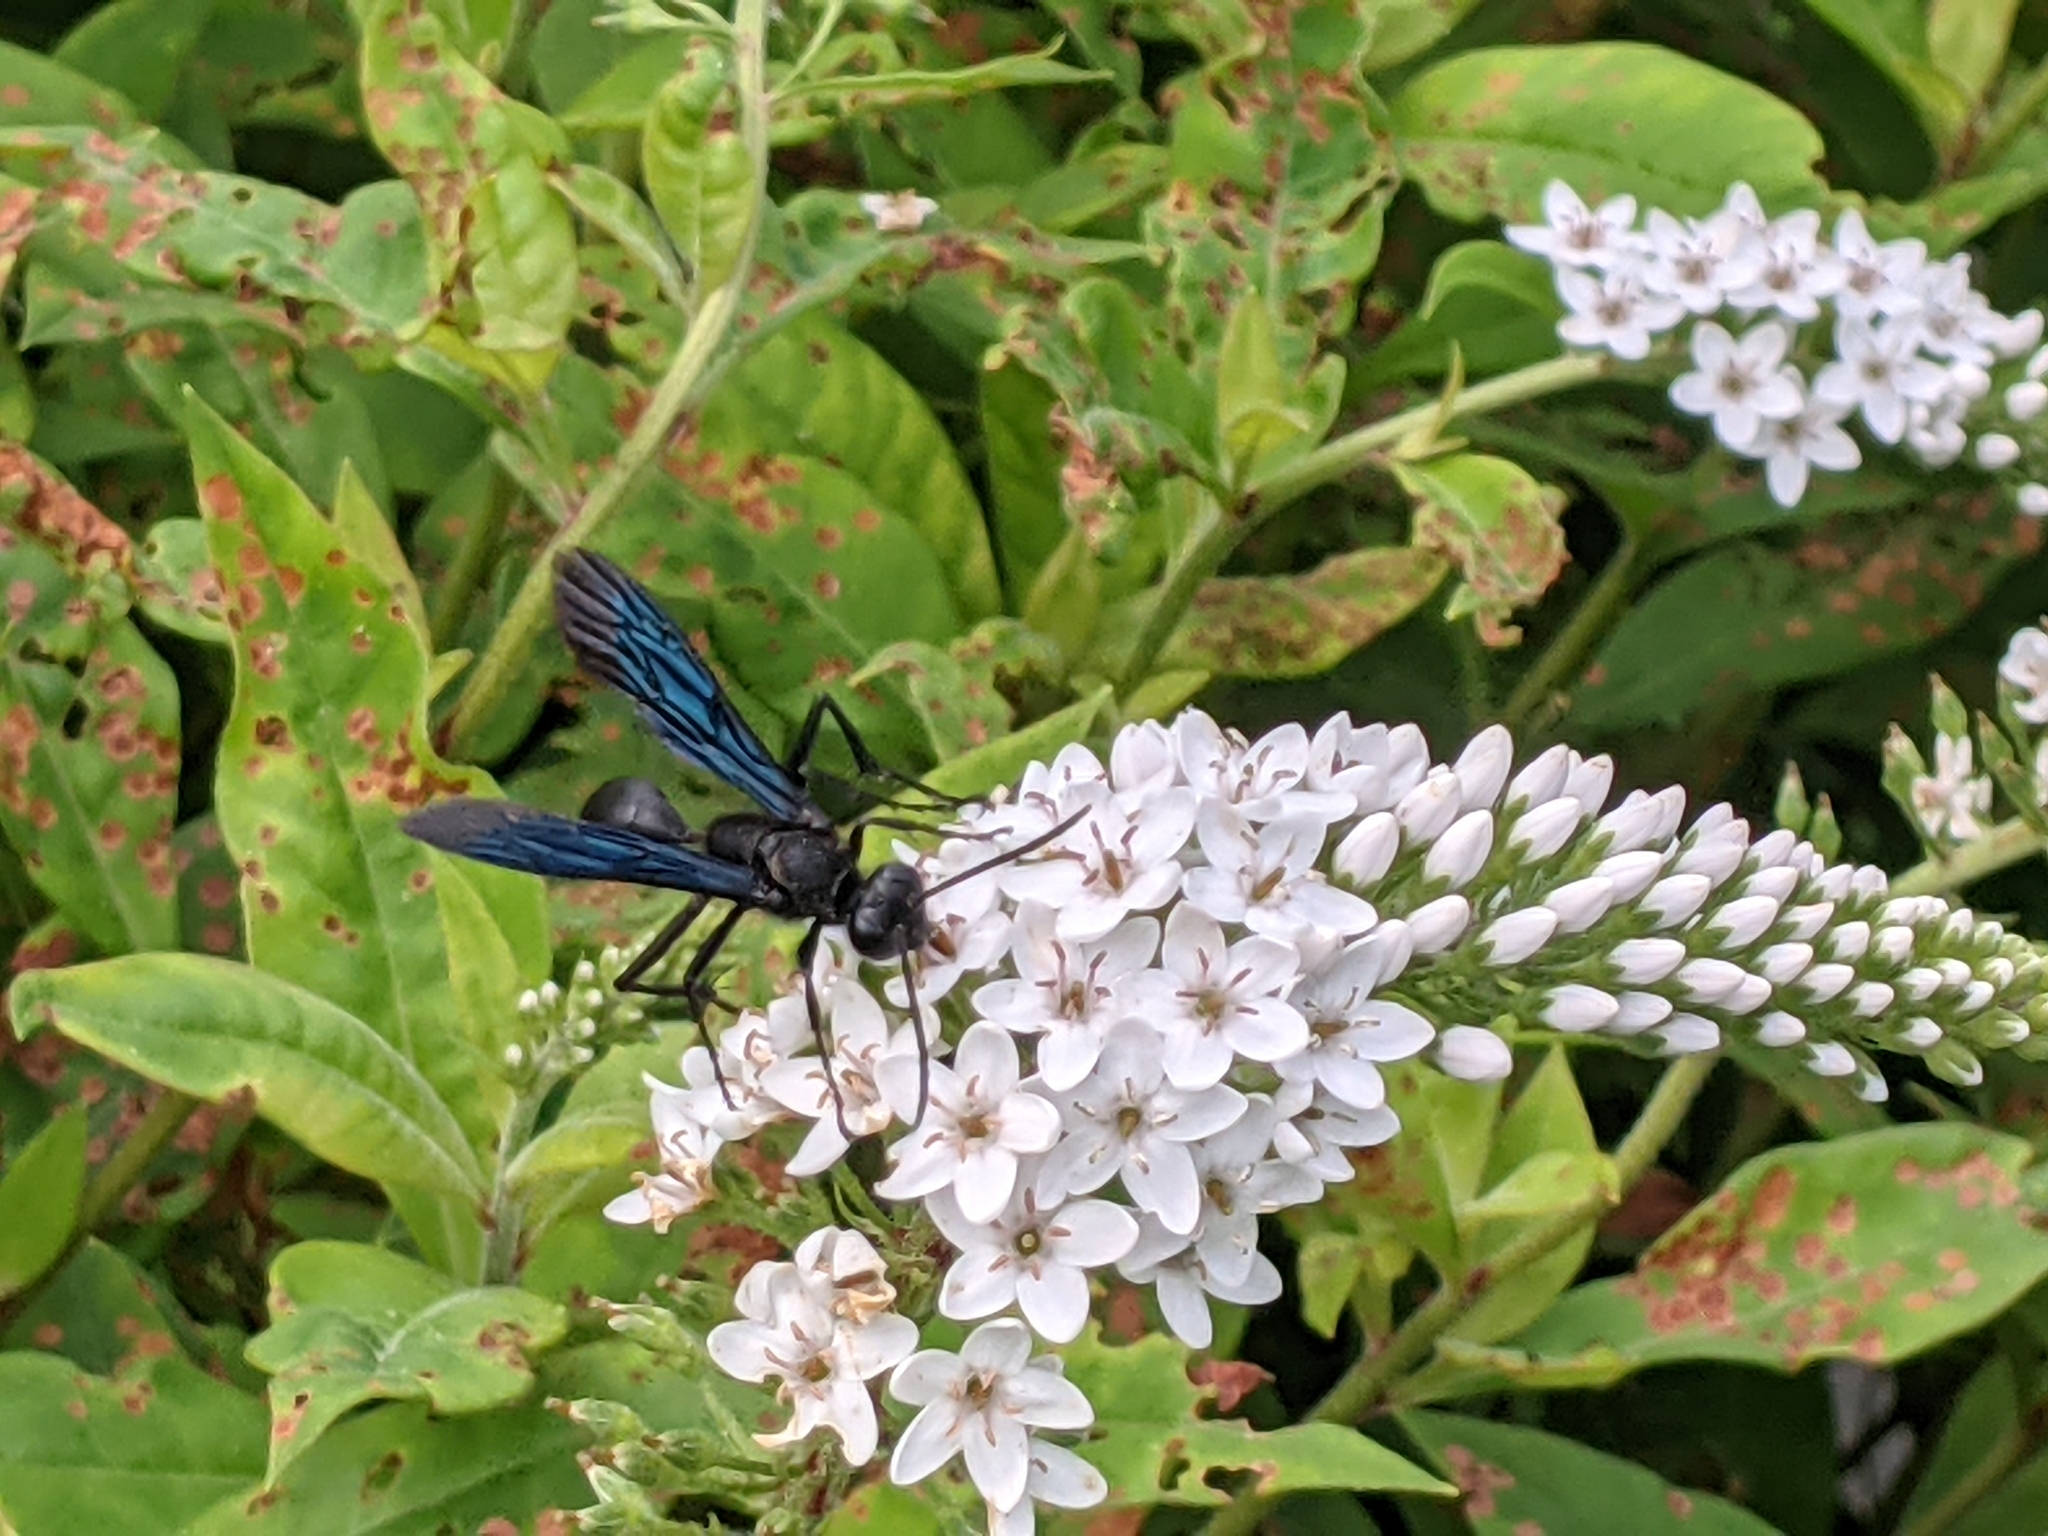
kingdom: Animalia
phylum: Arthropoda
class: Insecta
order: Hymenoptera
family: Sphecidae
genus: Sphex
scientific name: Sphex pensylvanicus
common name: Great black digger wasp
